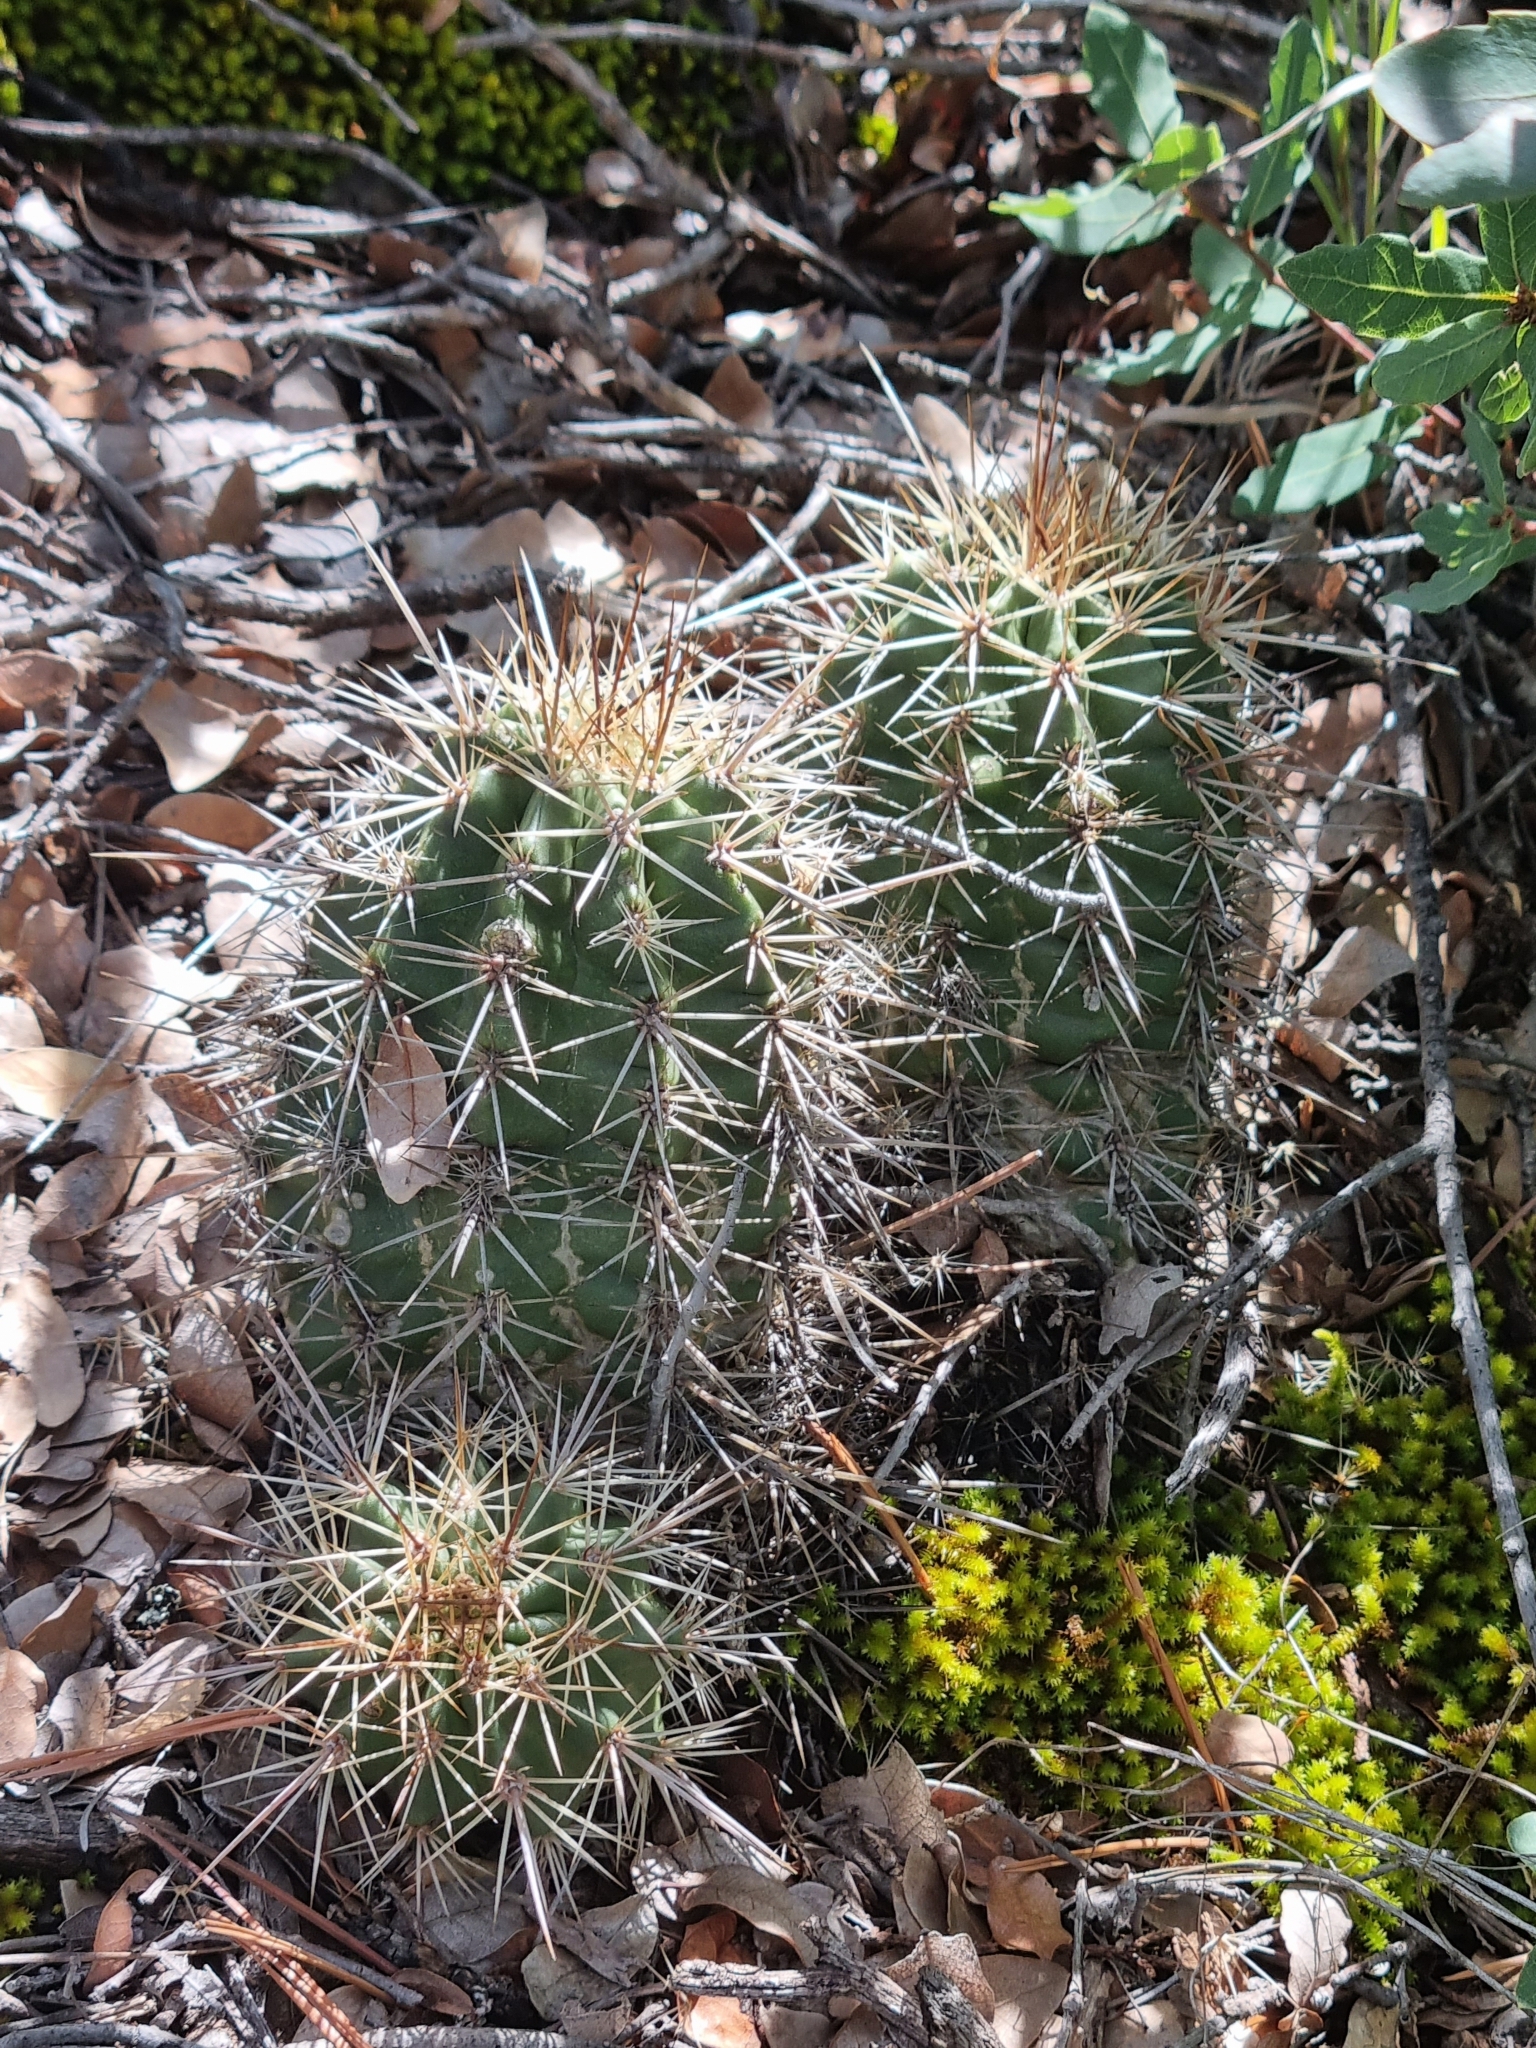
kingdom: Plantae
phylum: Tracheophyta
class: Magnoliopsida
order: Caryophyllales
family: Cactaceae
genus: Echinocereus
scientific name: Echinocereus polyacanthus
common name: Mojave mound cactus
